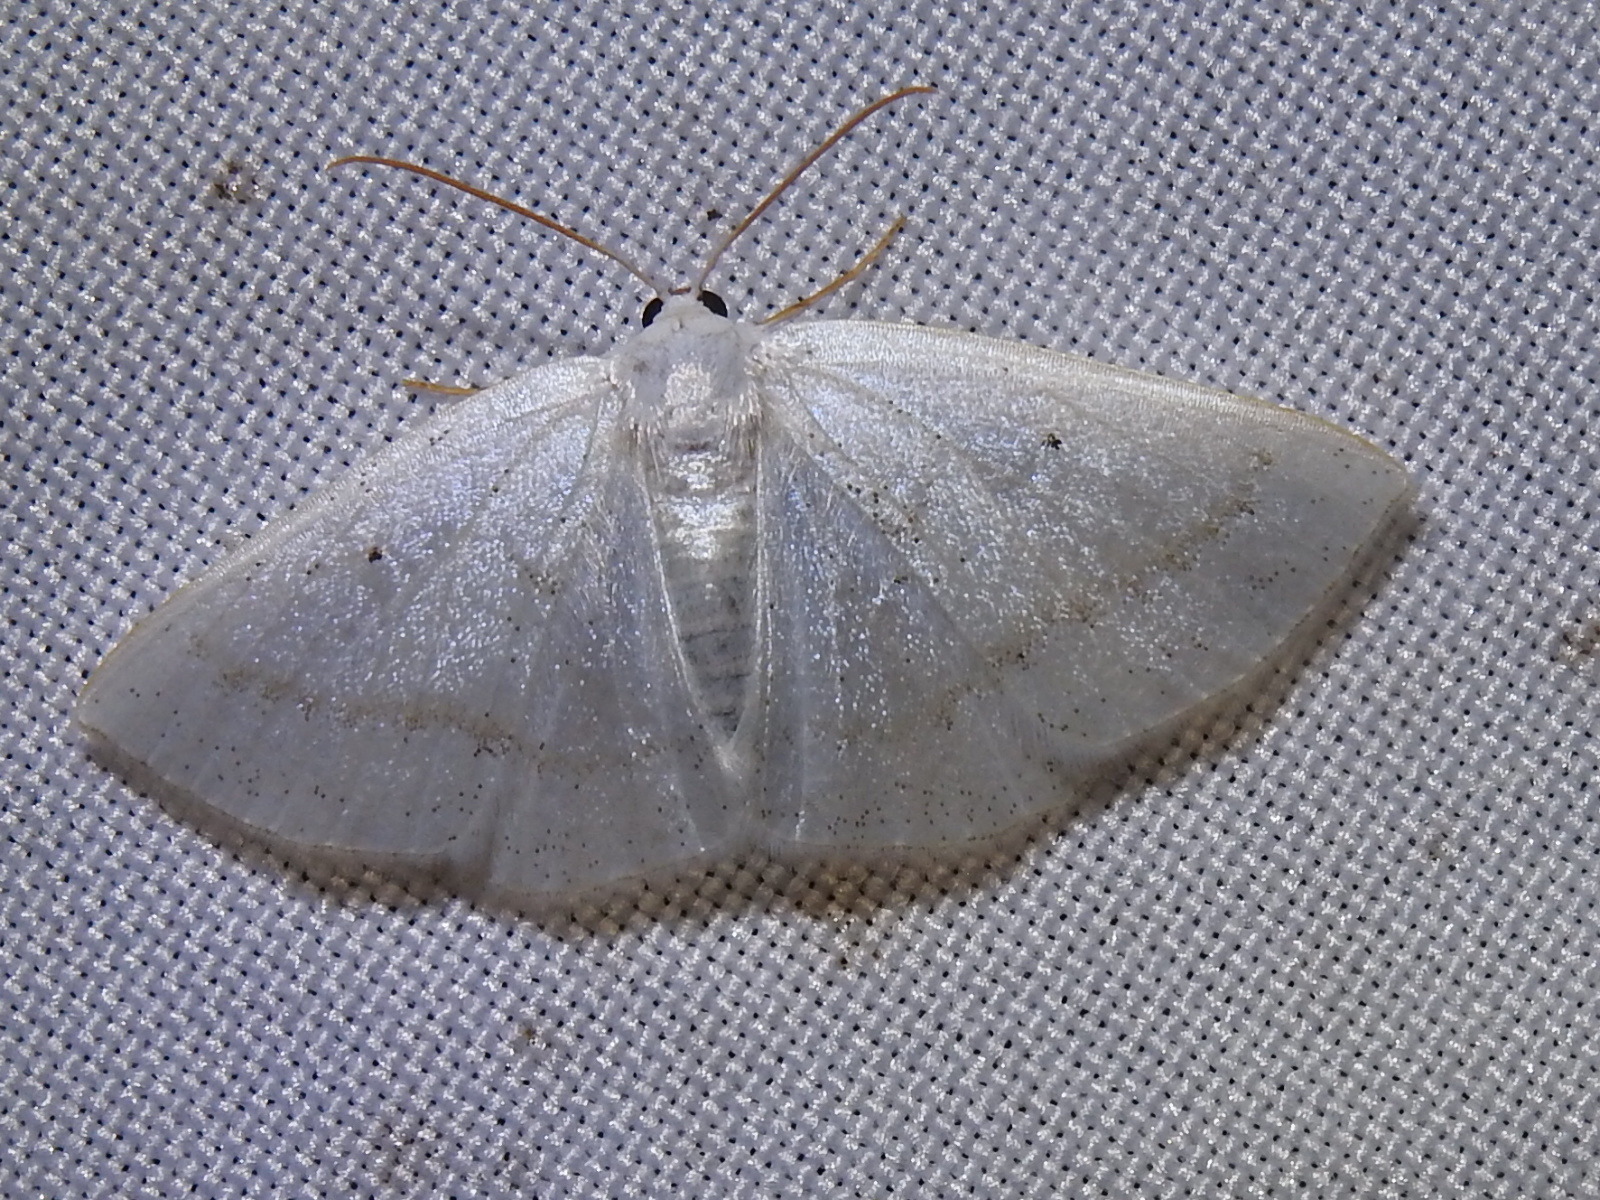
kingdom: Animalia
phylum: Arthropoda
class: Insecta
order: Lepidoptera
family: Geometridae
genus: Lomographa
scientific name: Lomographa argentata
